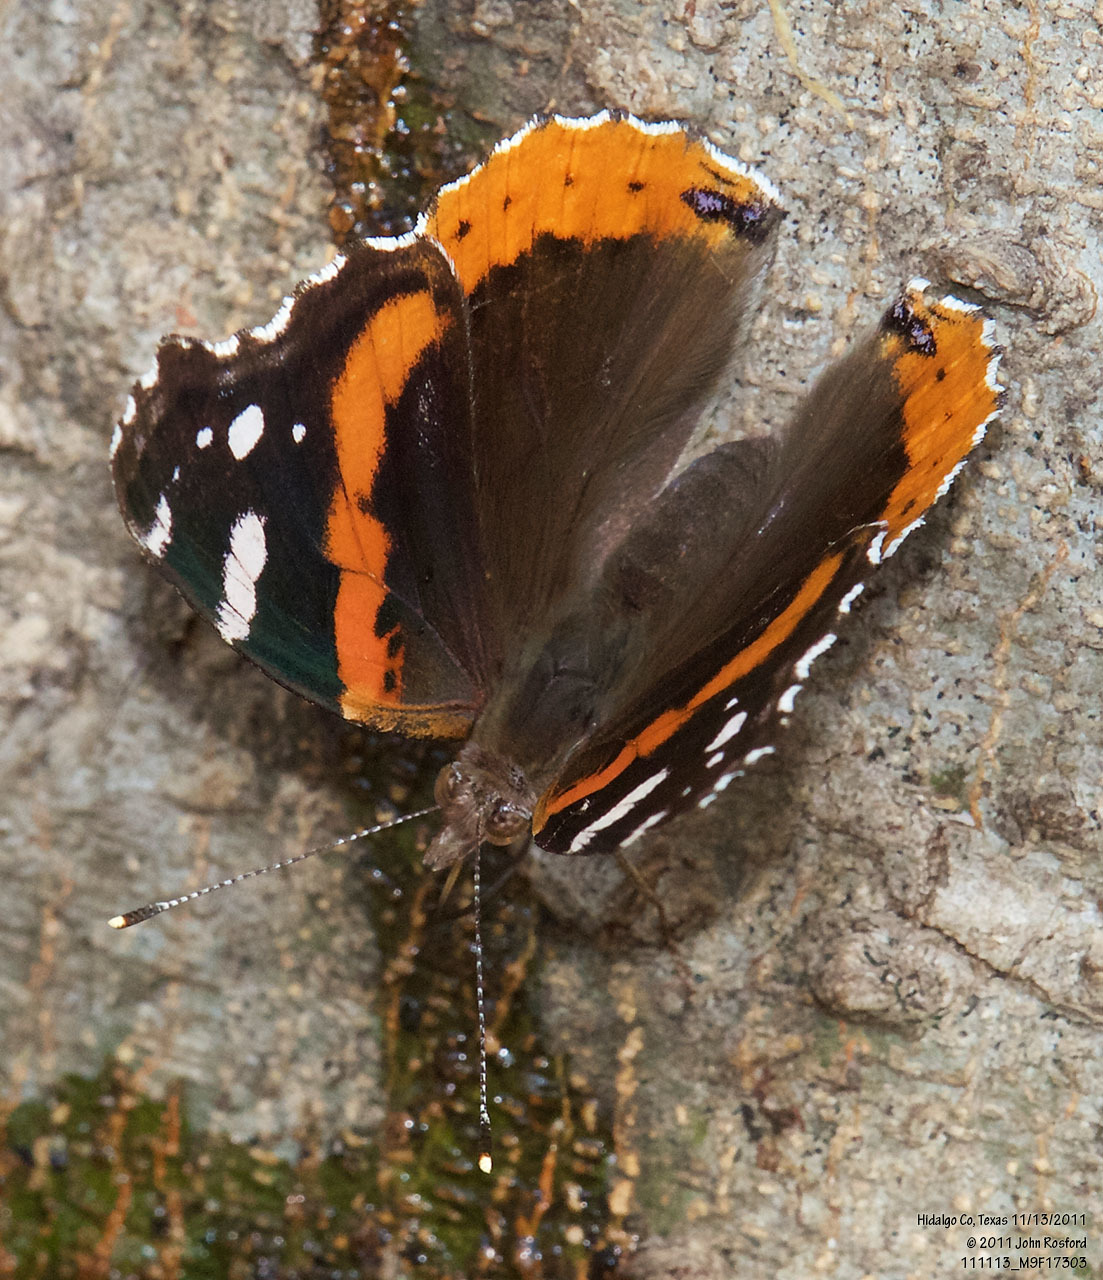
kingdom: Animalia
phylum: Arthropoda
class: Insecta
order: Lepidoptera
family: Nymphalidae
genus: Vanessa
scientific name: Vanessa atalanta
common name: Red admiral
